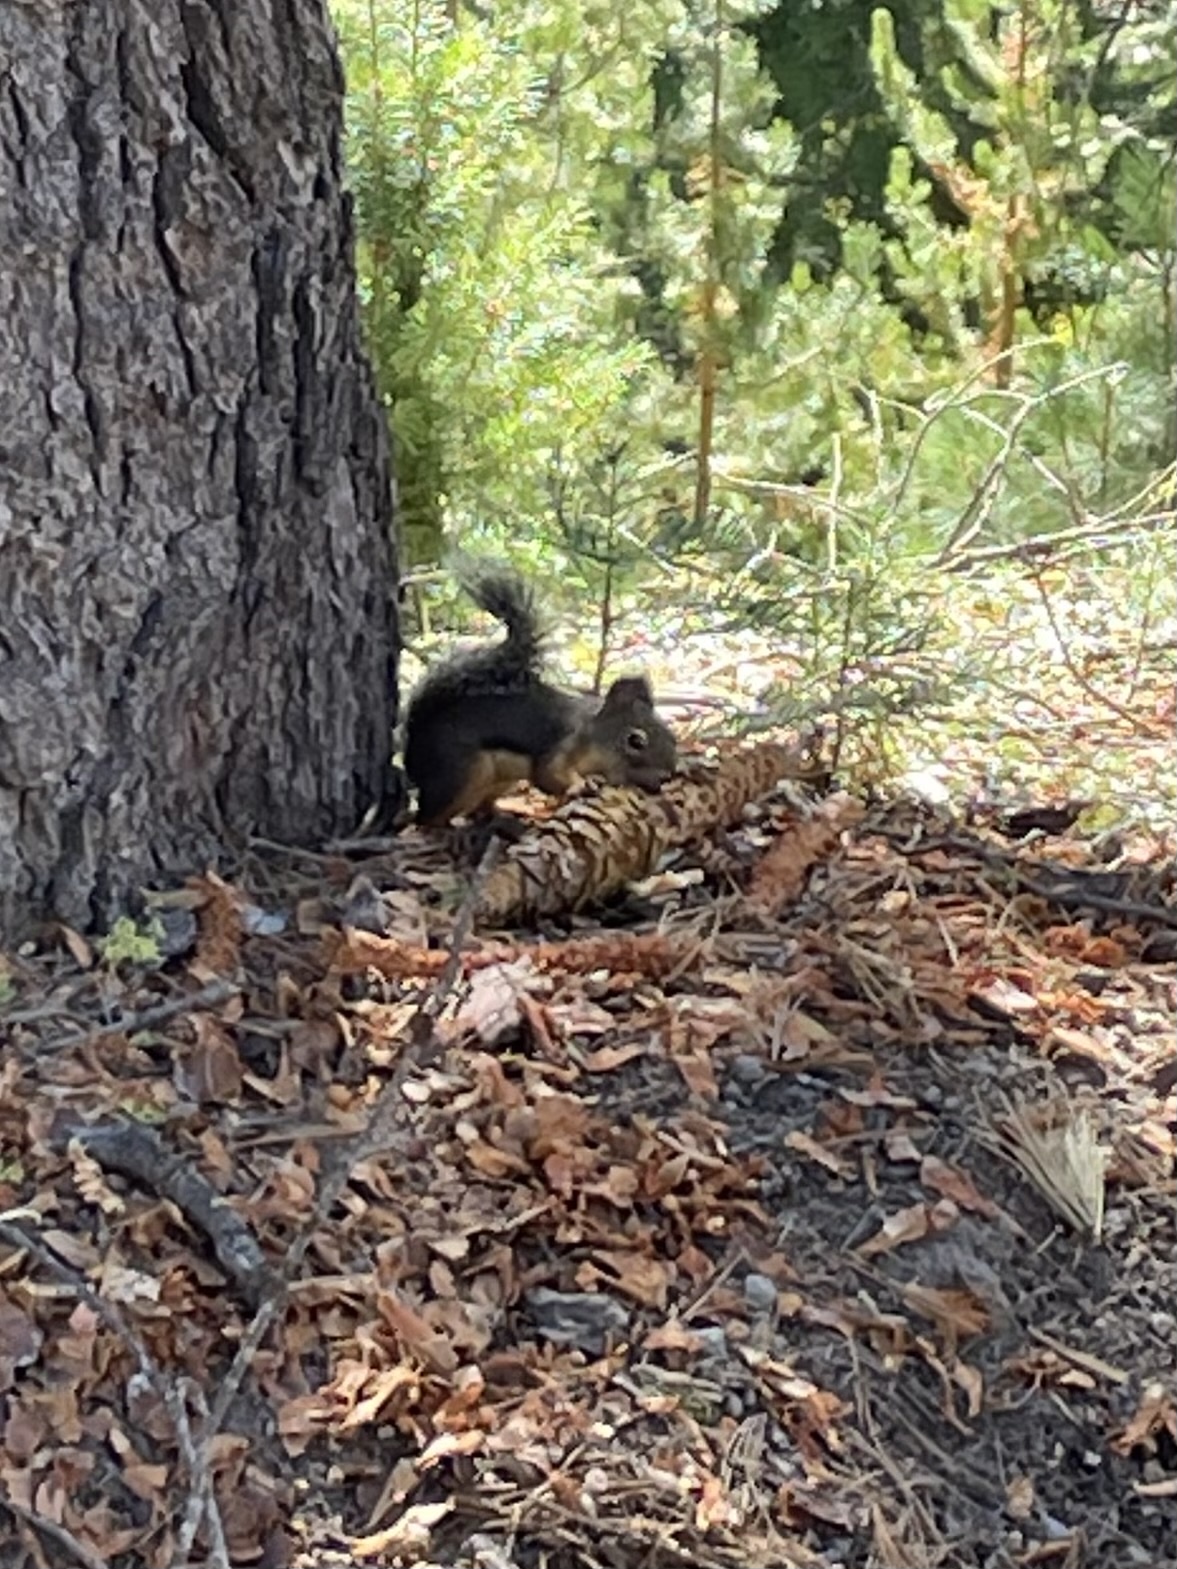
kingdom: Animalia
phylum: Chordata
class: Mammalia
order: Rodentia
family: Sciuridae
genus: Tamiasciurus
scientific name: Tamiasciurus douglasii
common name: Douglas's squirrel
